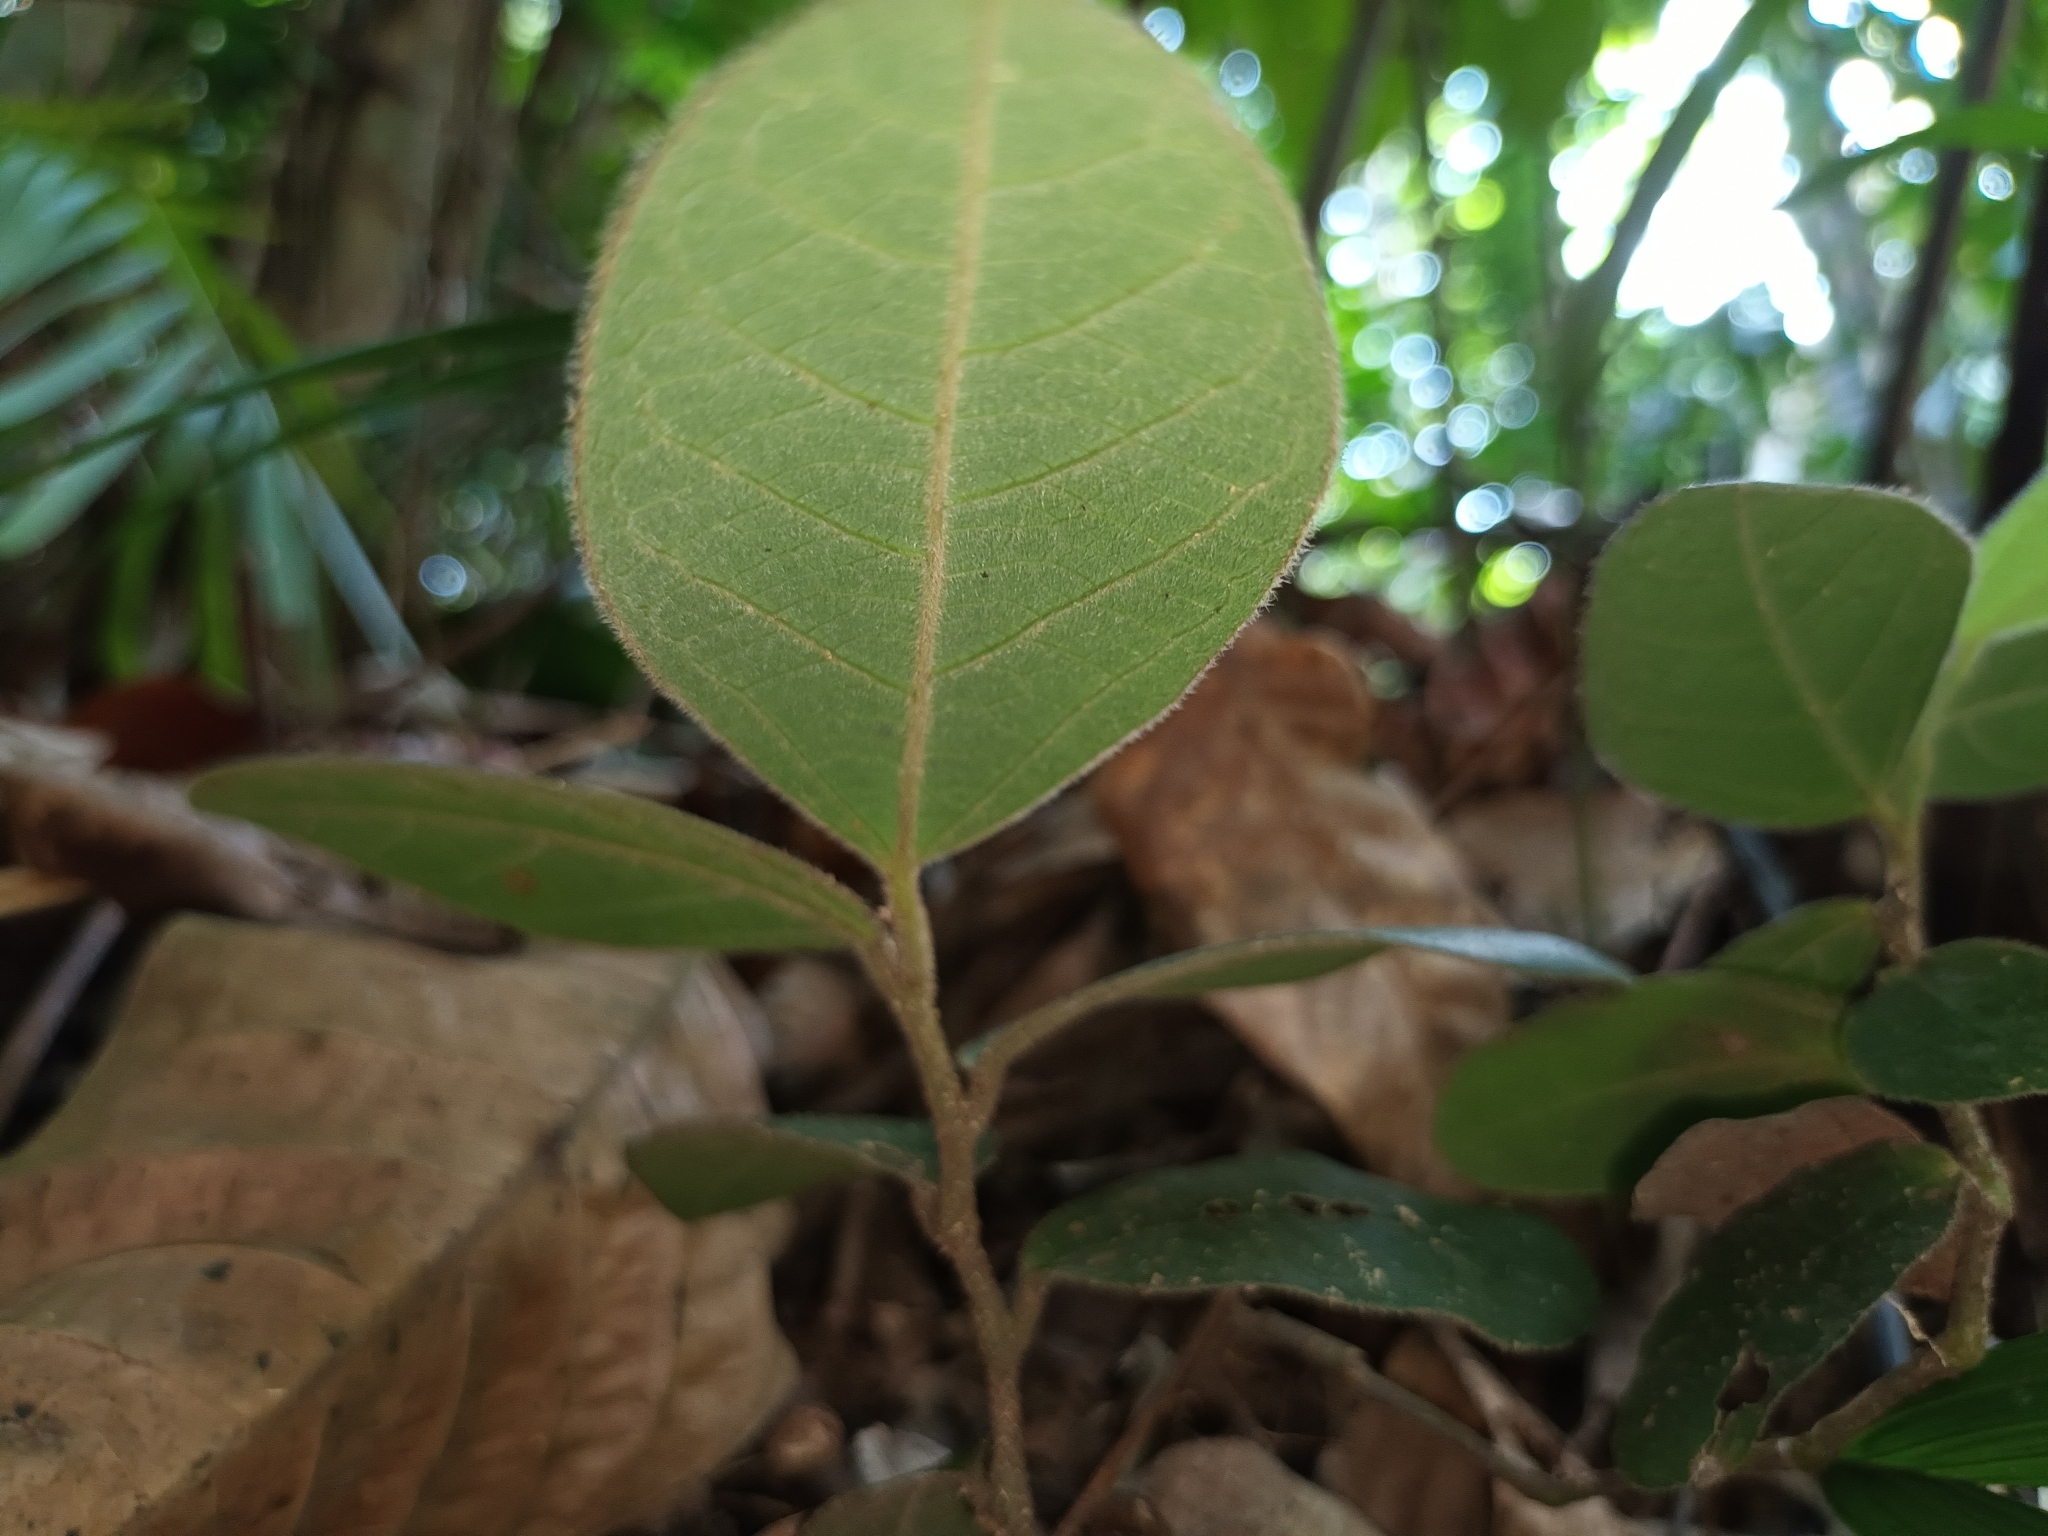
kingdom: Plantae
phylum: Tracheophyta
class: Magnoliopsida
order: Piperales
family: Aristolochiaceae
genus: Thottea
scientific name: Thottea grandiflora
